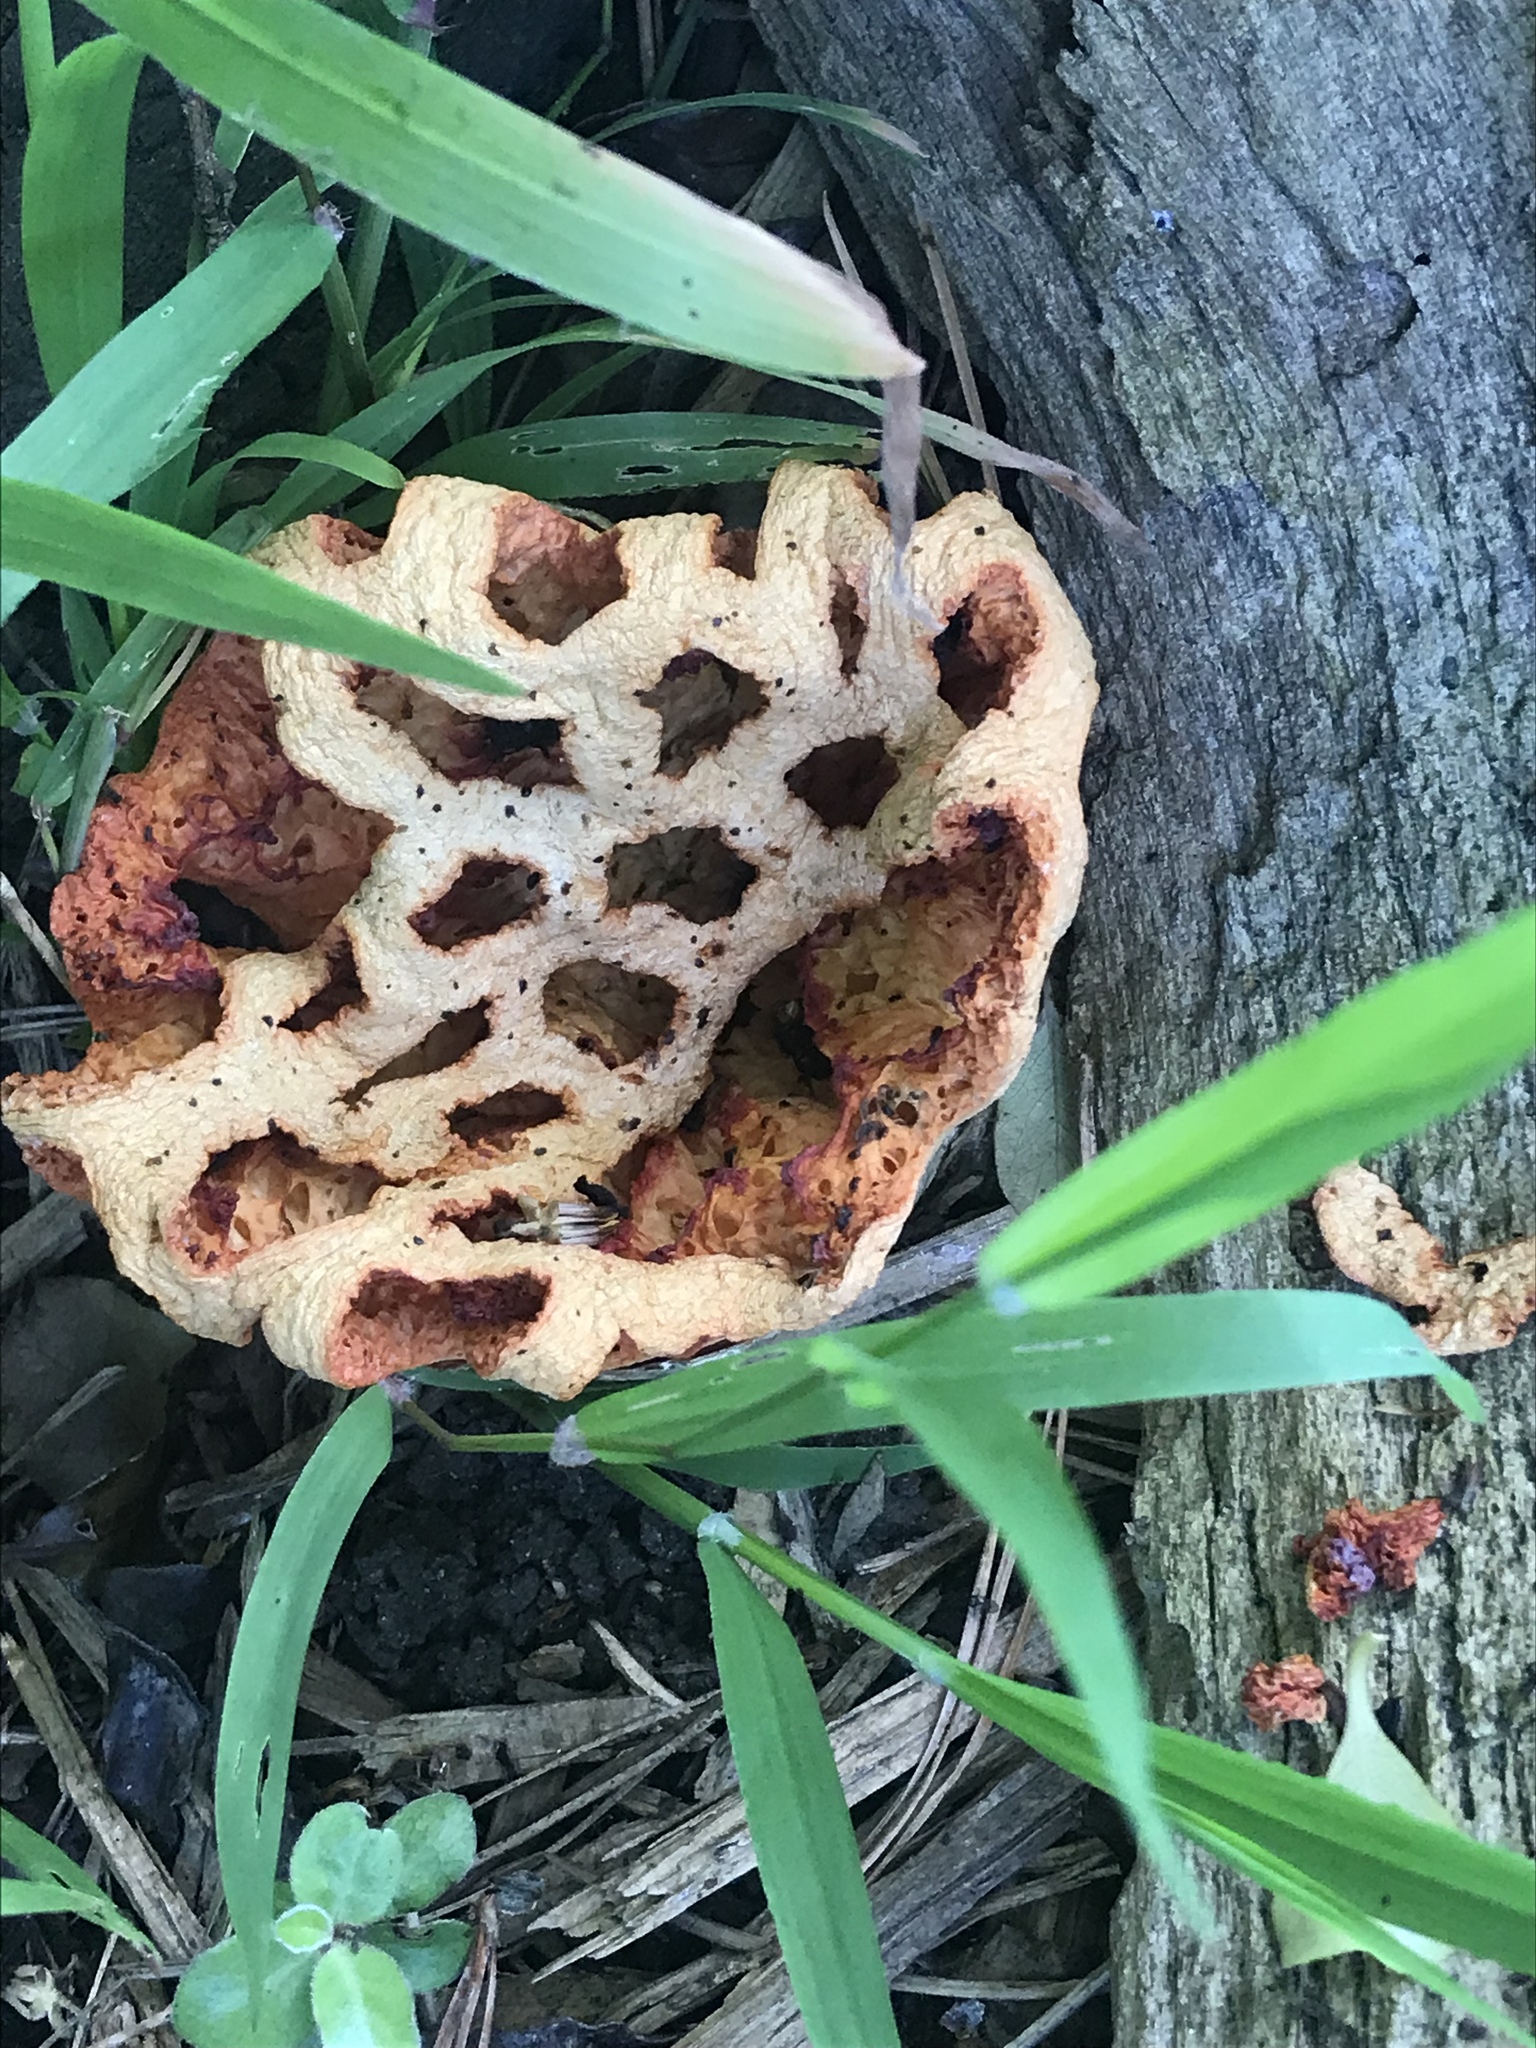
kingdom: Fungi
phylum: Basidiomycota
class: Agaricomycetes
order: Phallales
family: Phallaceae
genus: Clathrus
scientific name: Clathrus ruber
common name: Red cage
